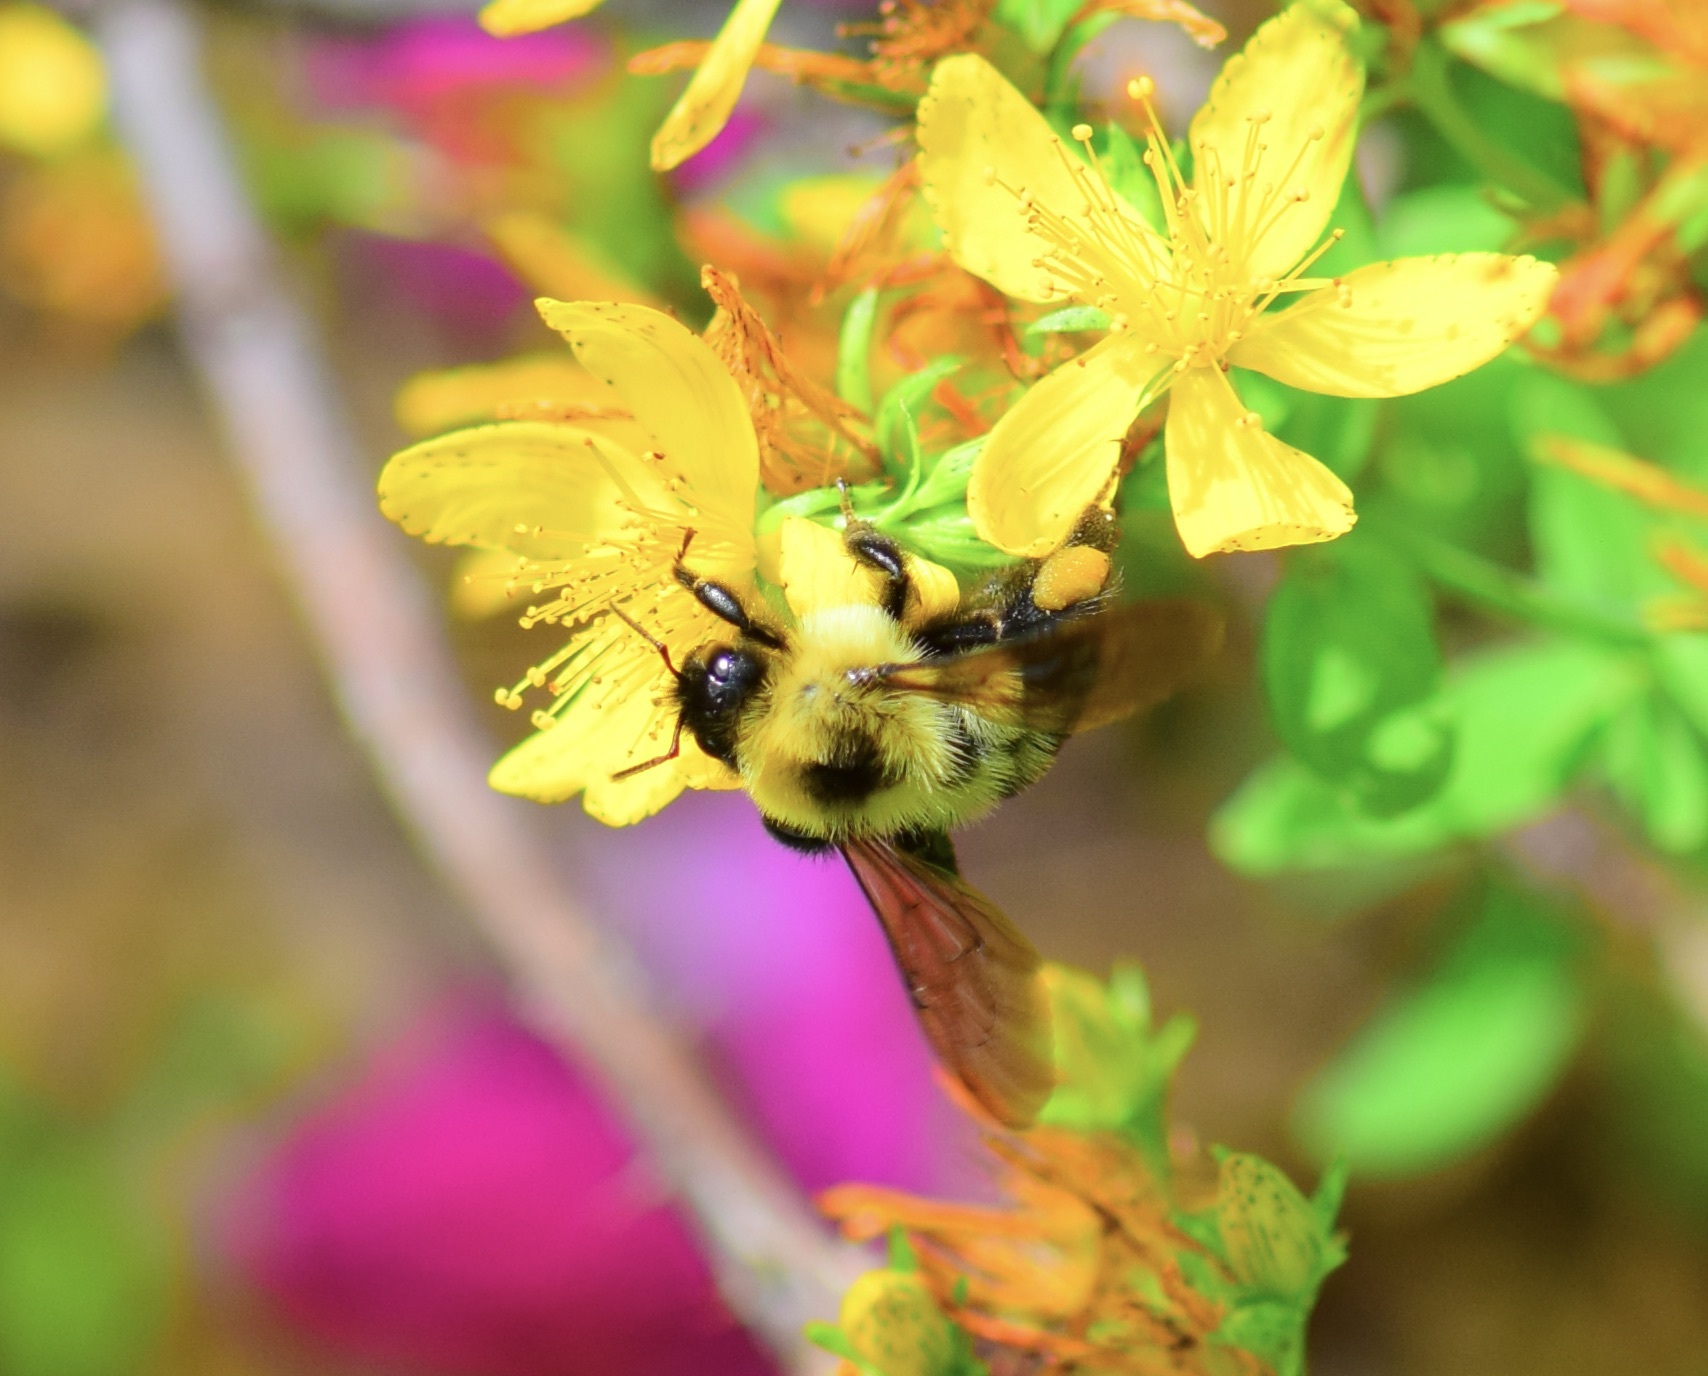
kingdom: Animalia
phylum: Arthropoda
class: Insecta
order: Hymenoptera
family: Apidae
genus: Bombus
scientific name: Bombus bimaculatus
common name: Two-spotted bumble bee
